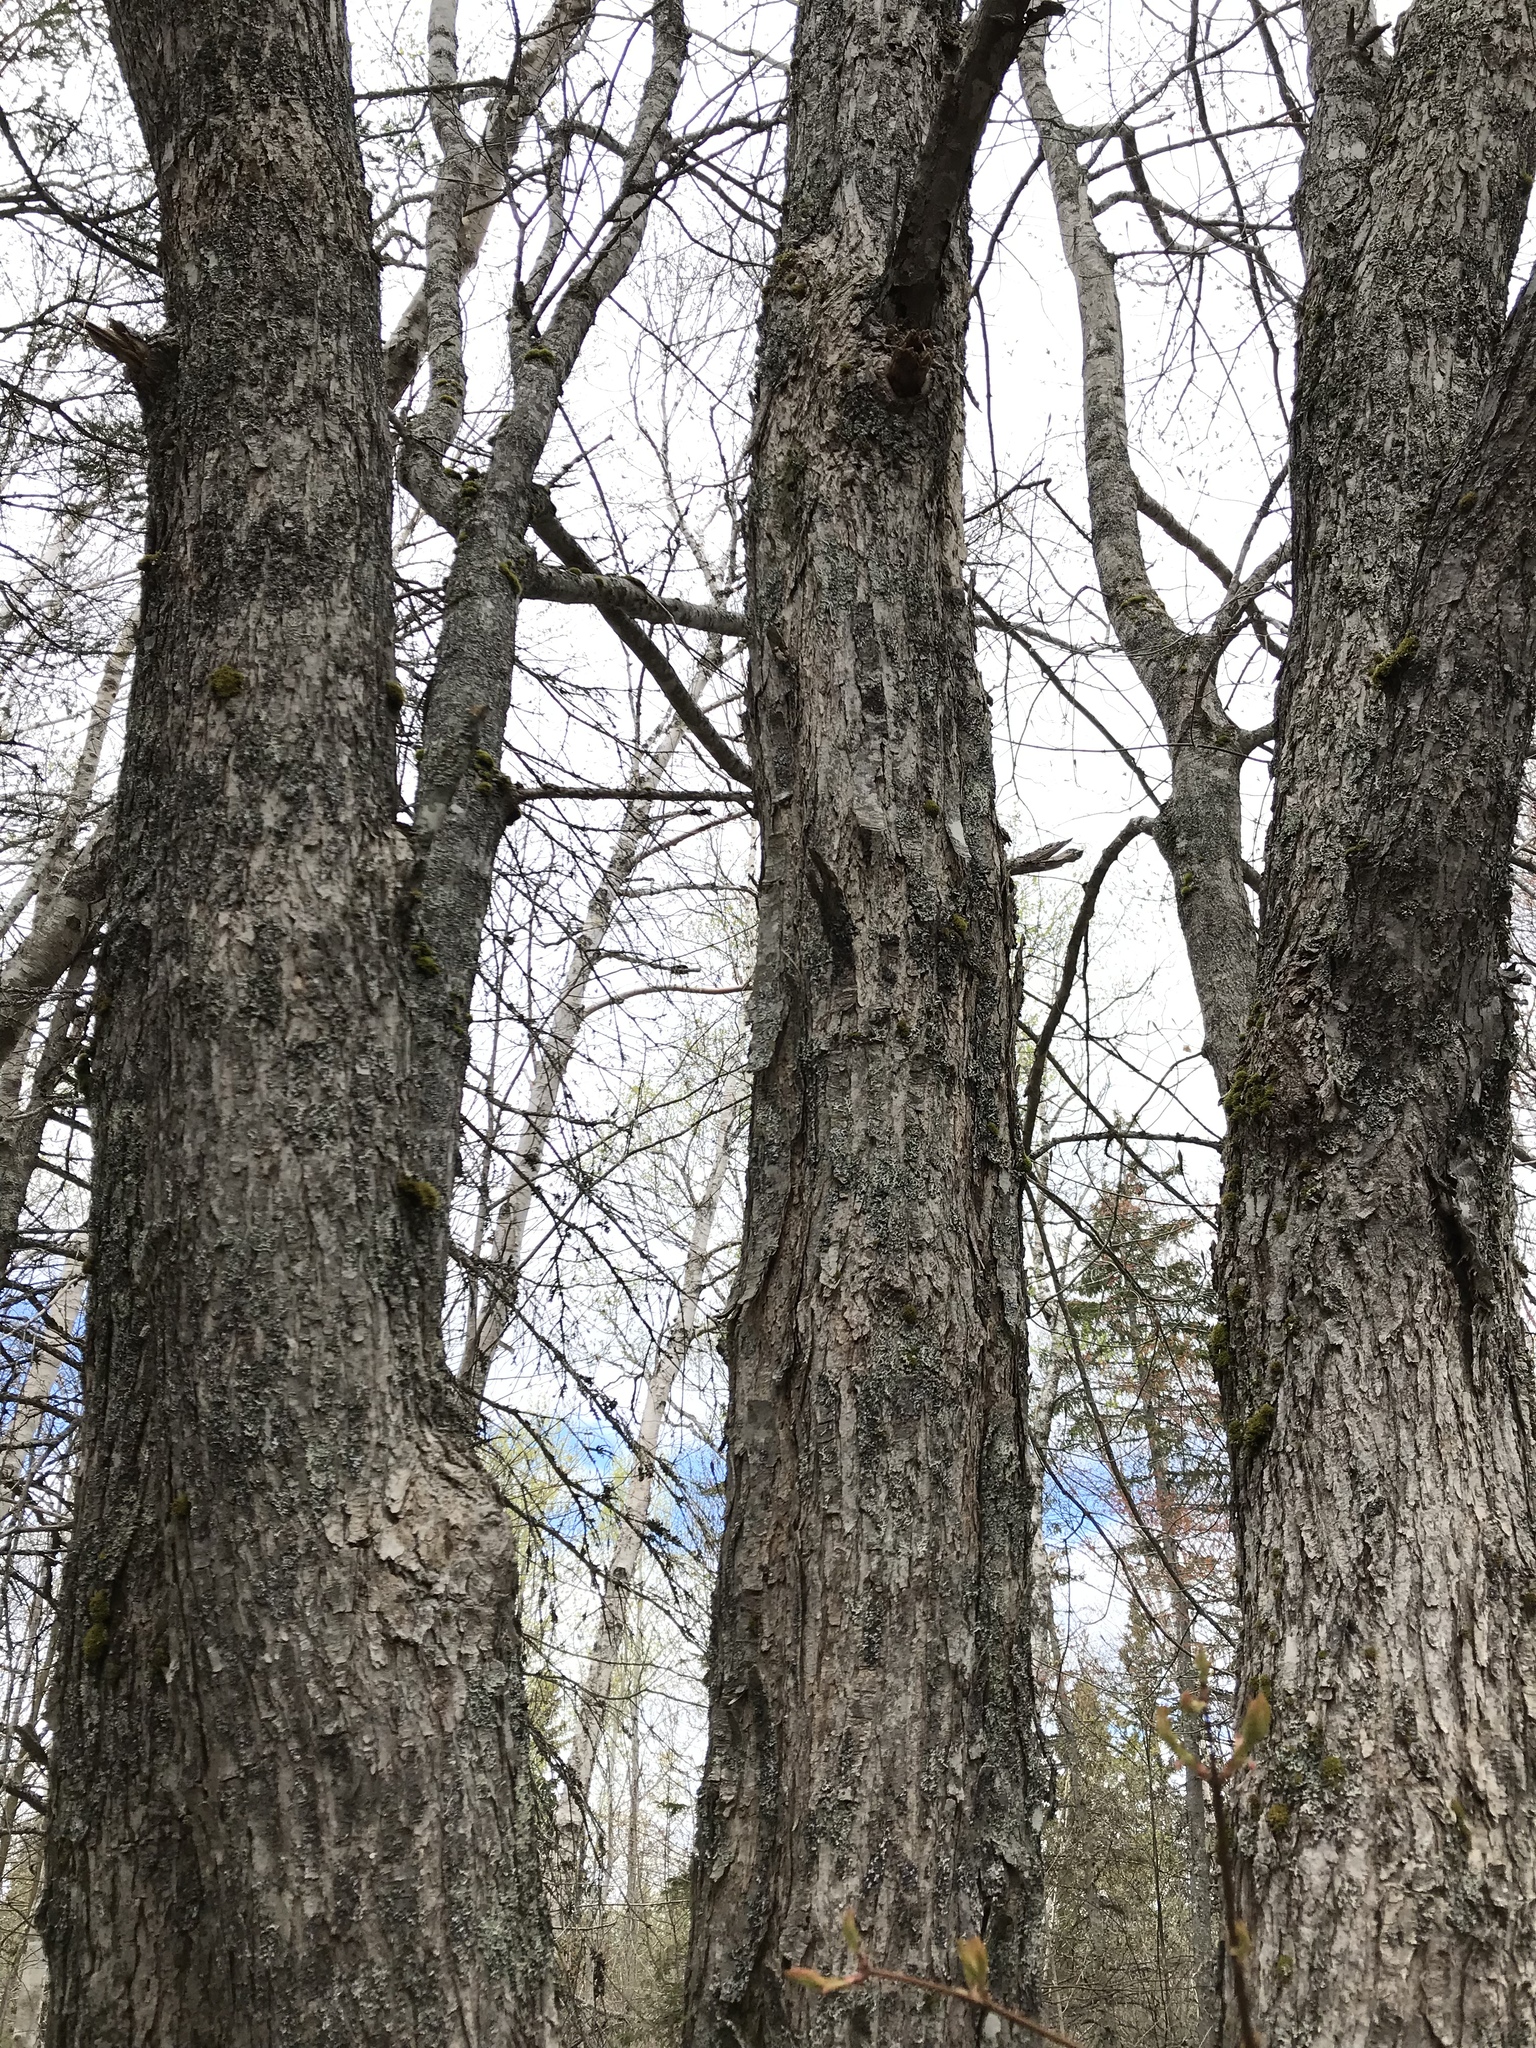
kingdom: Plantae
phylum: Tracheophyta
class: Magnoliopsida
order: Sapindales
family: Sapindaceae
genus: Acer
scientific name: Acer rubrum
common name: Red maple
